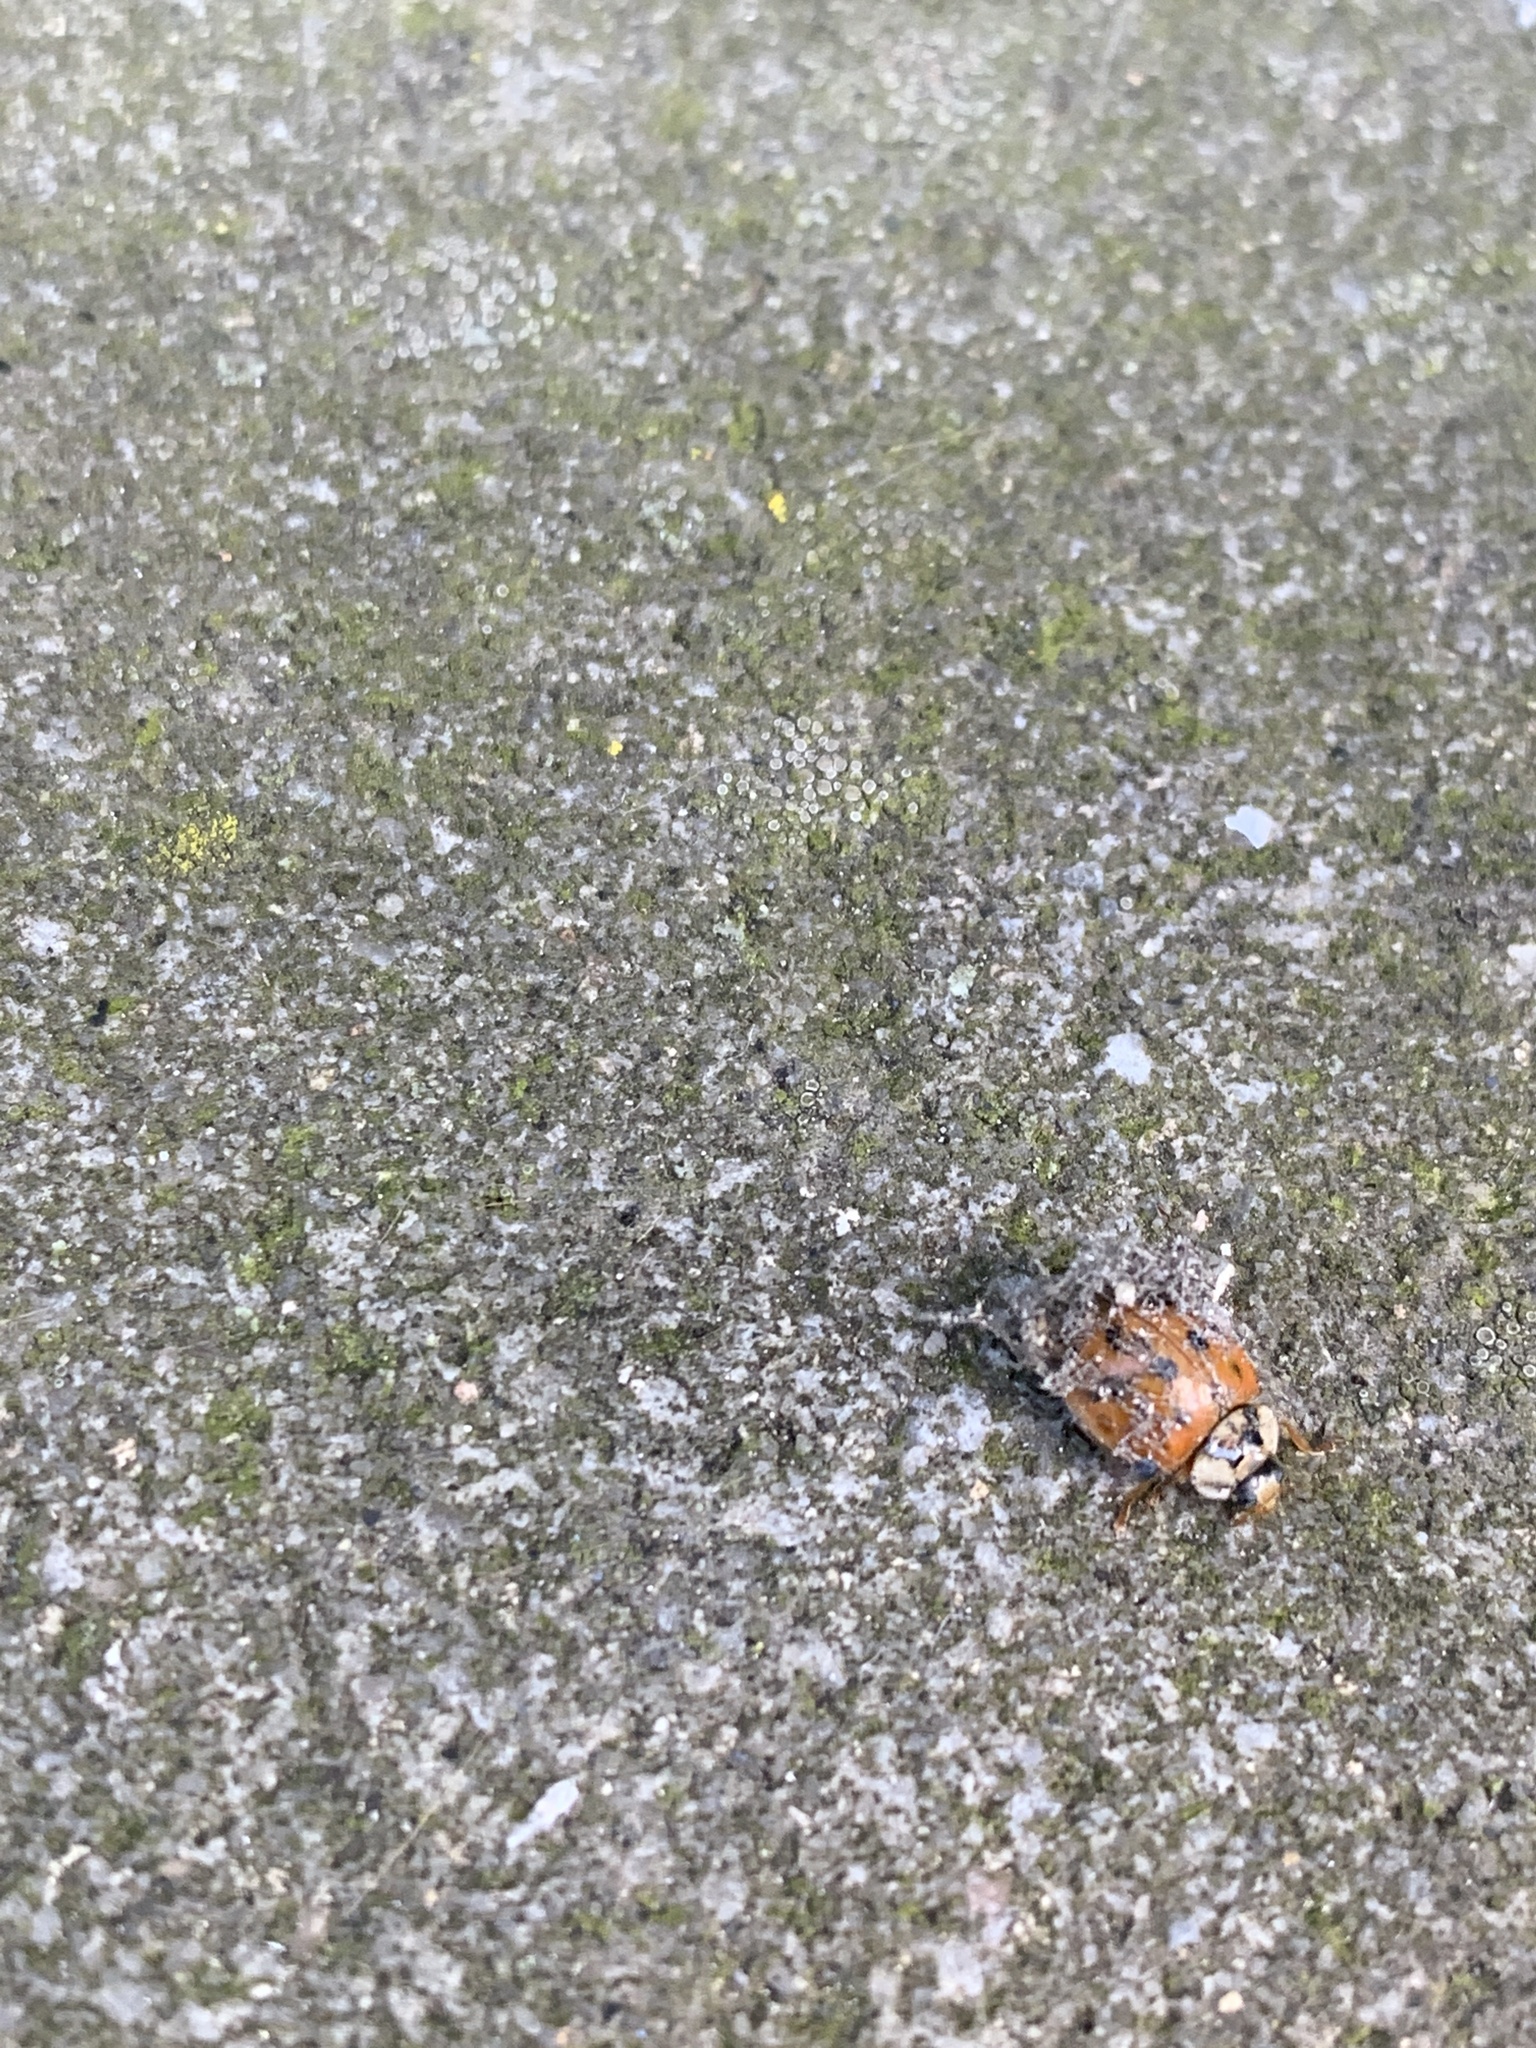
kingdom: Animalia
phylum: Arthropoda
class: Insecta
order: Coleoptera
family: Coccinellidae
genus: Harmonia
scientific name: Harmonia axyridis
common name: Harlequin ladybird
